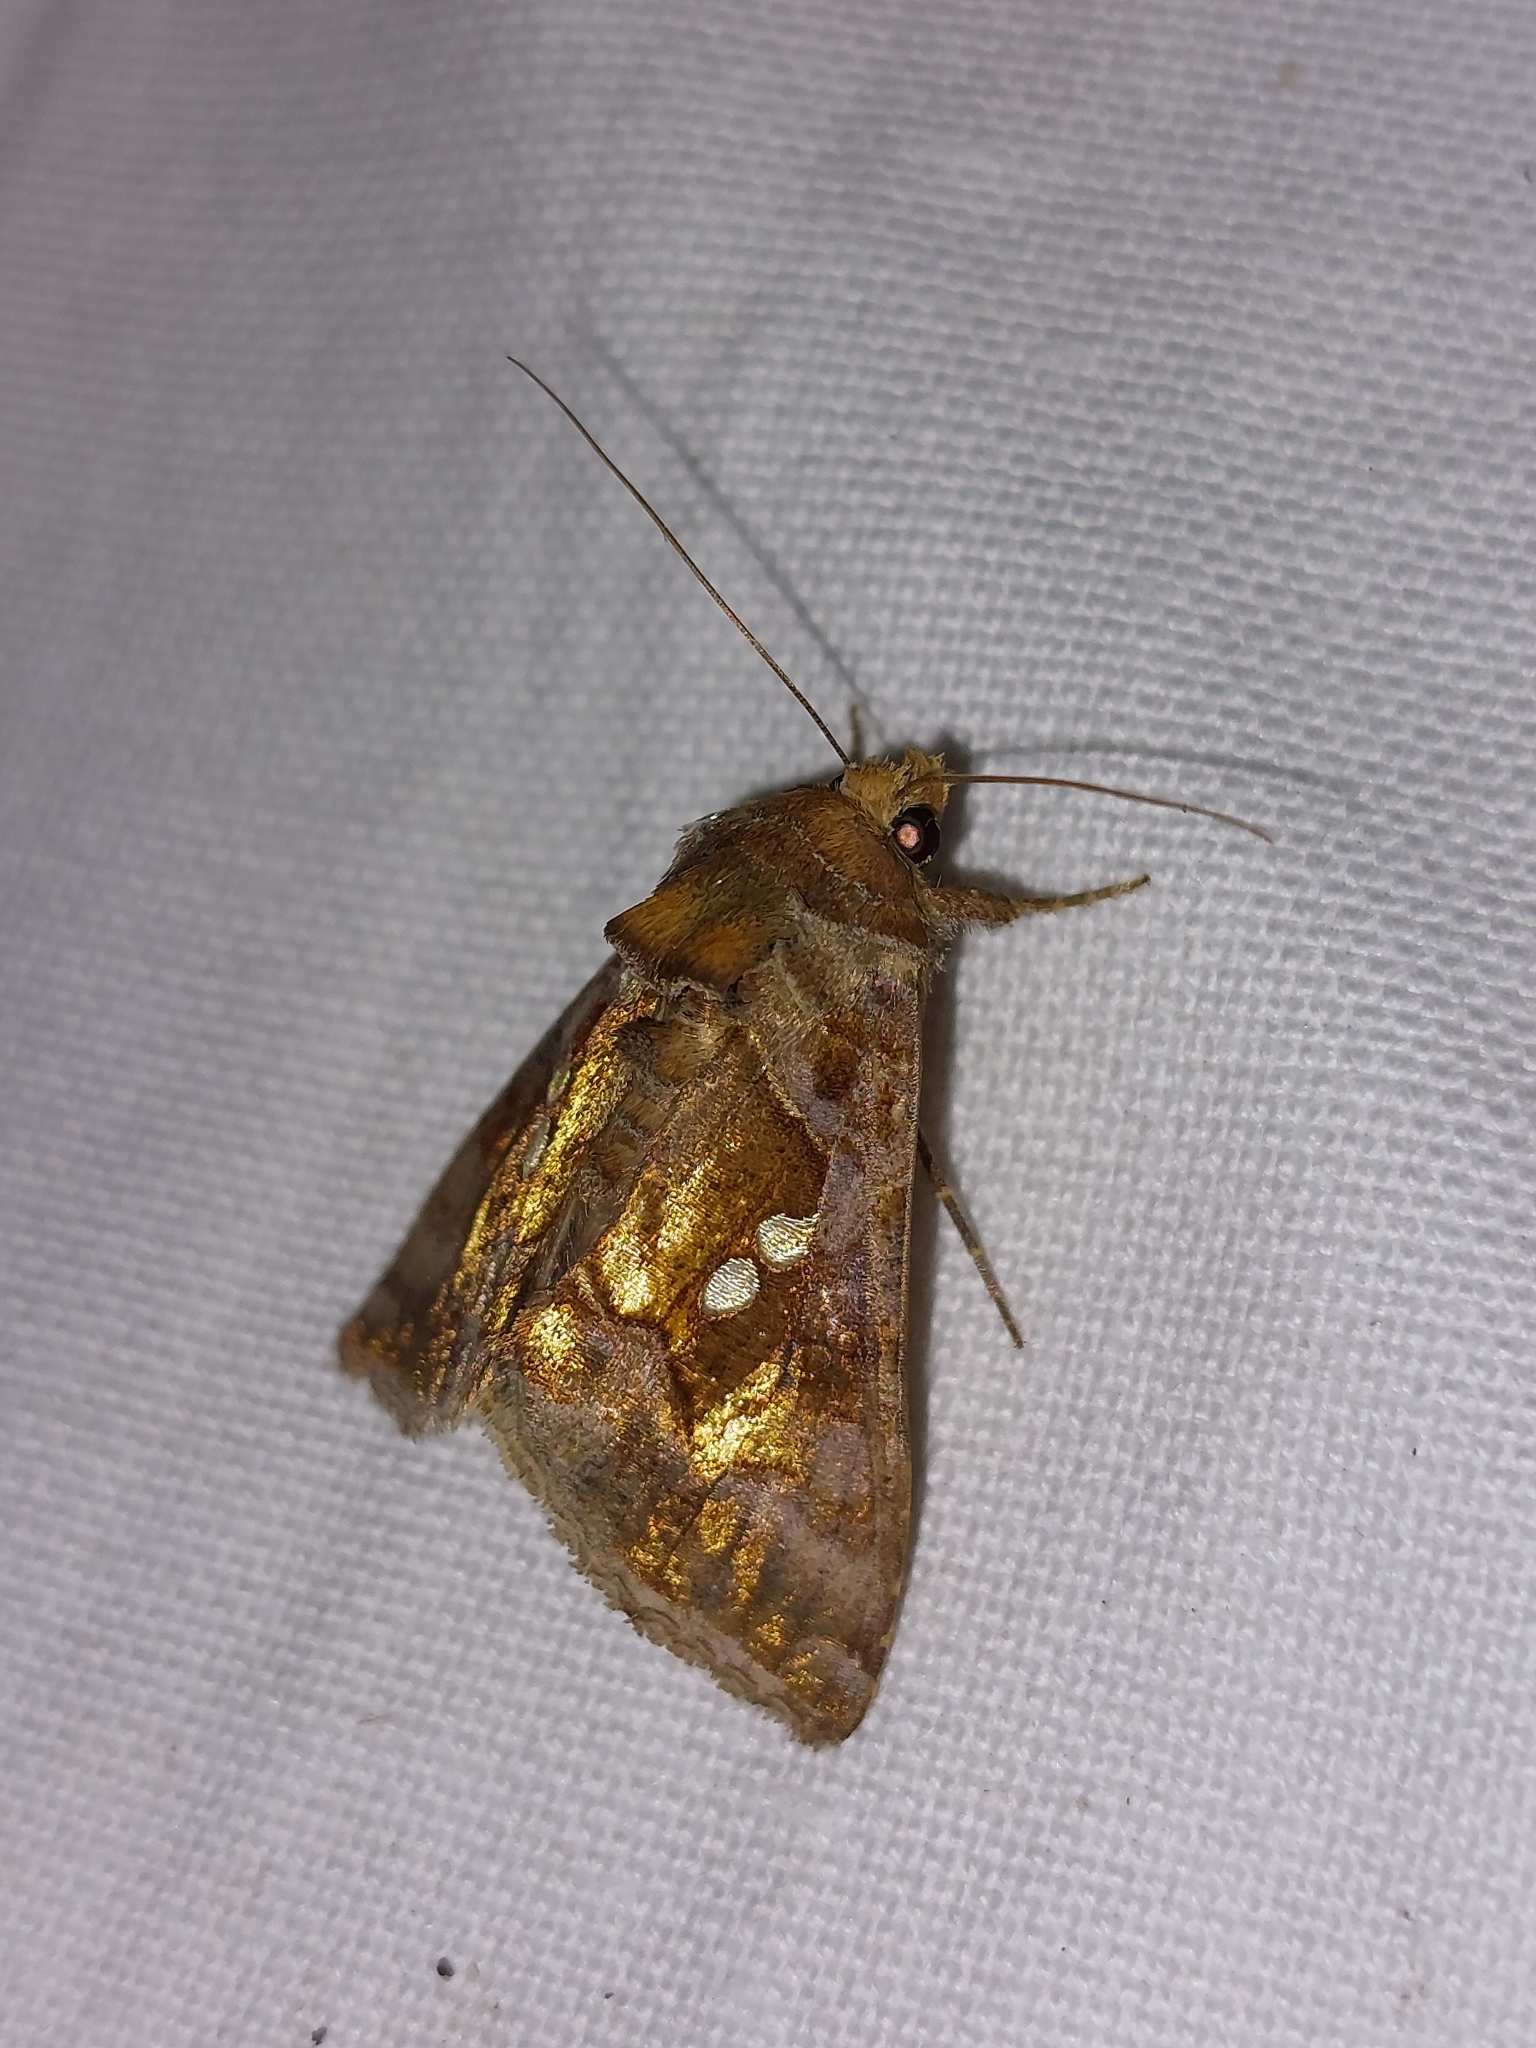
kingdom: Animalia
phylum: Arthropoda
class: Insecta
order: Lepidoptera
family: Noctuidae
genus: Chrysodeixis
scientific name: Chrysodeixis chalcites
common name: Golden twin-spot
